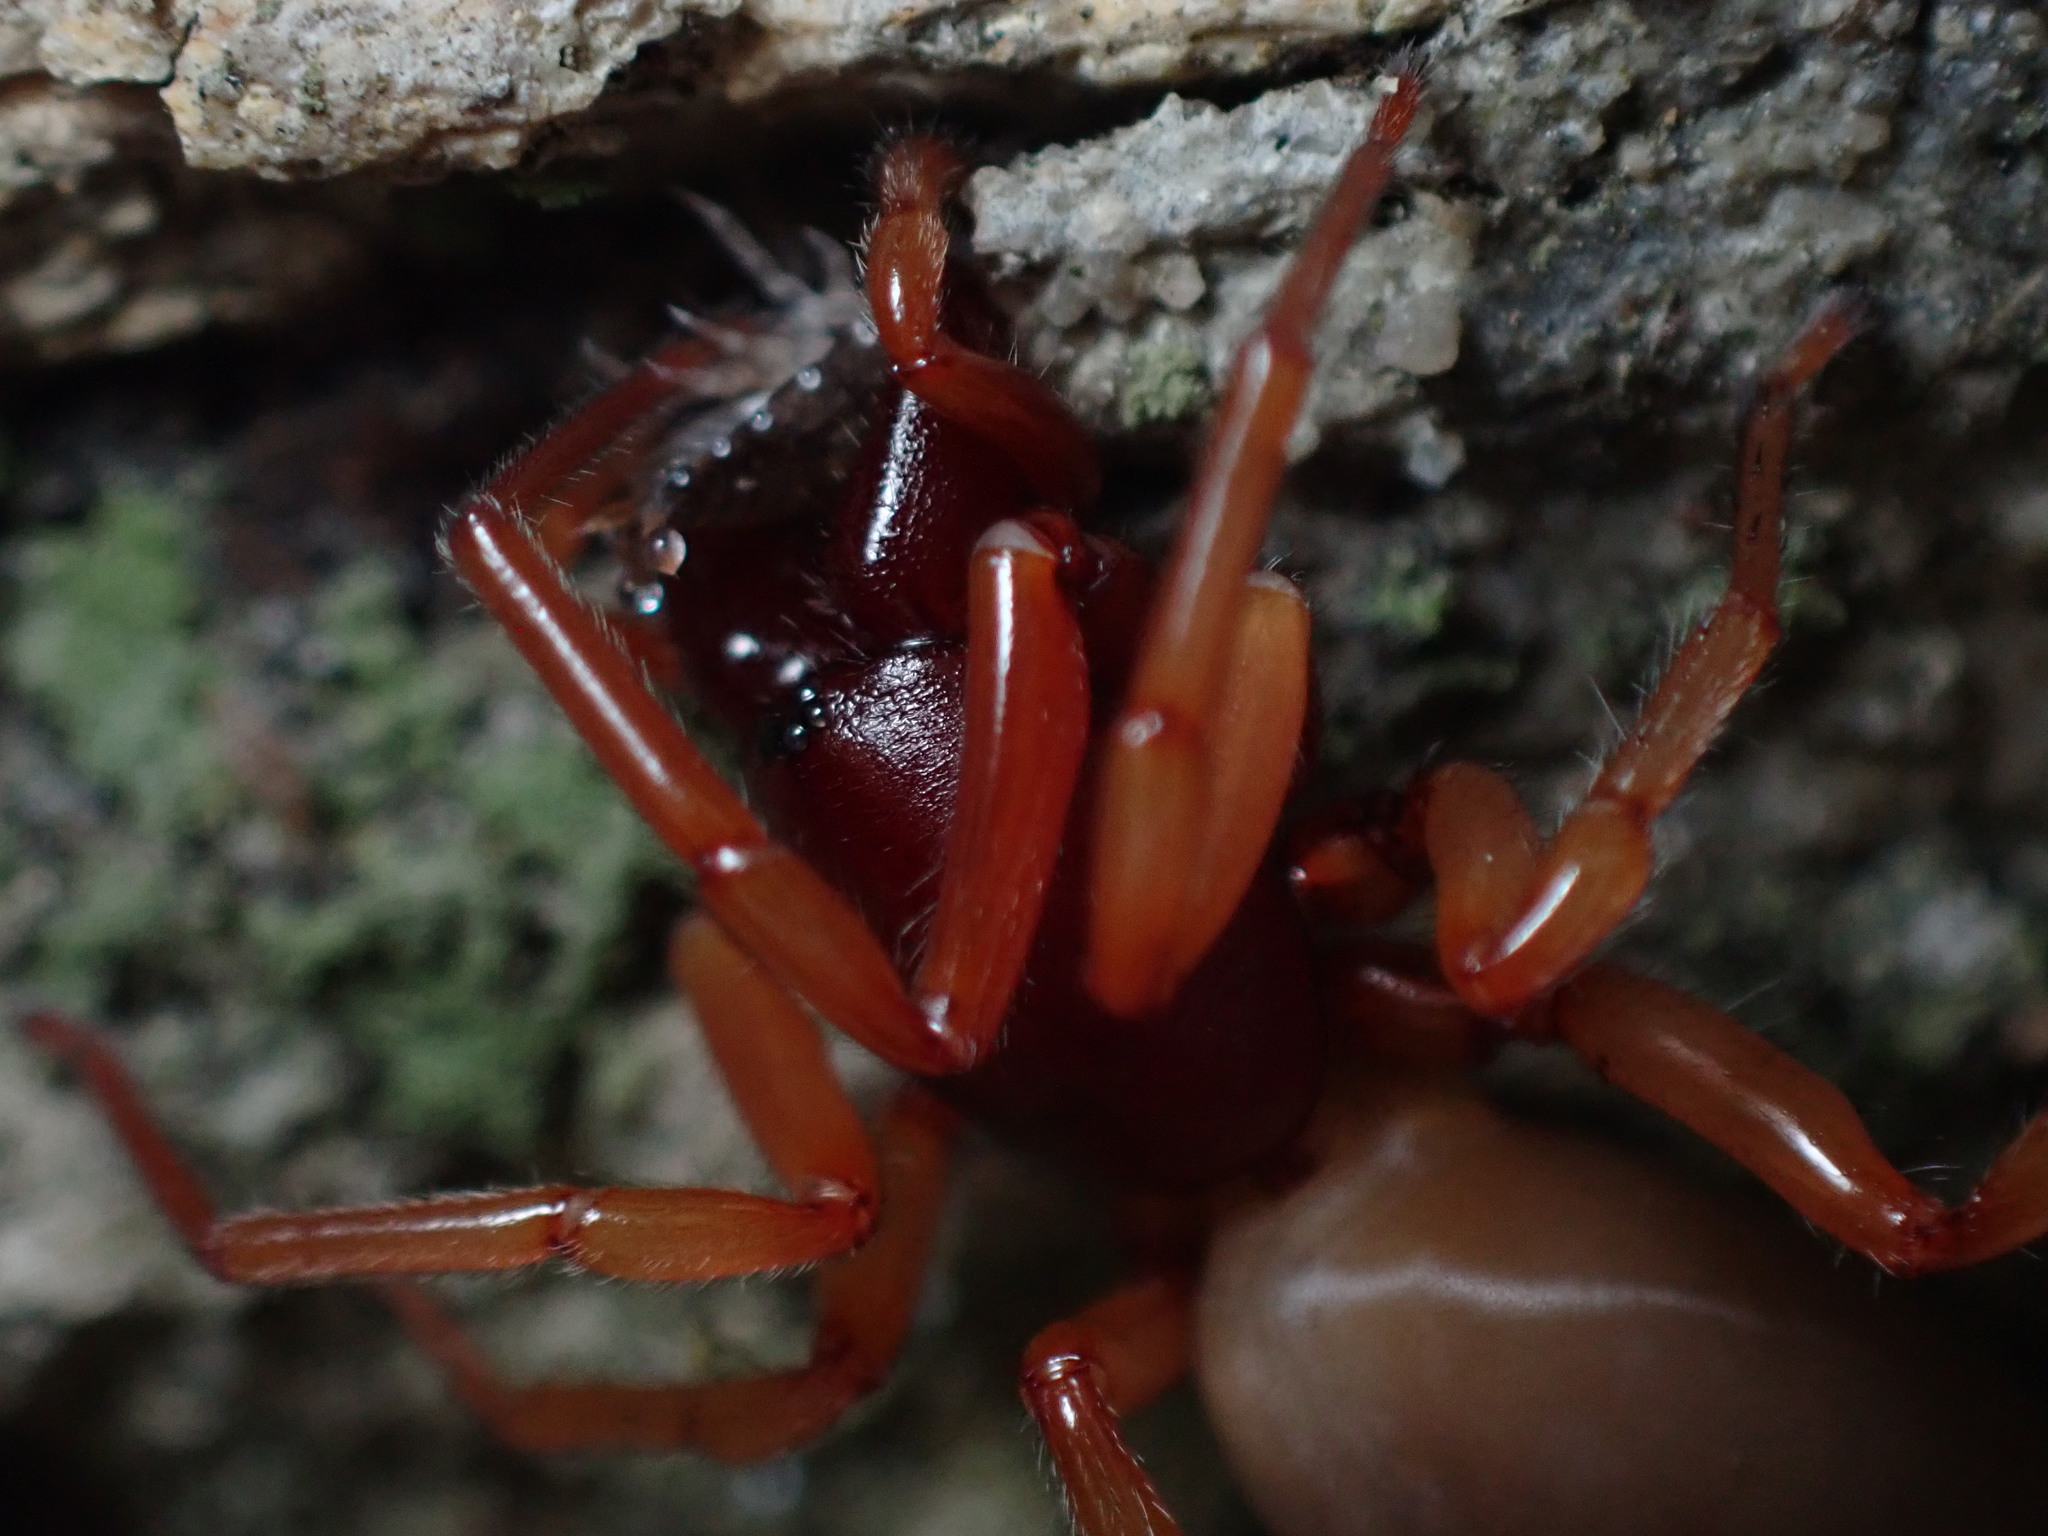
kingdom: Animalia
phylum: Arthropoda
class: Arachnida
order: Araneae
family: Dysderidae
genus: Dysdera
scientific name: Dysdera crocata
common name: Woodlouse spider
